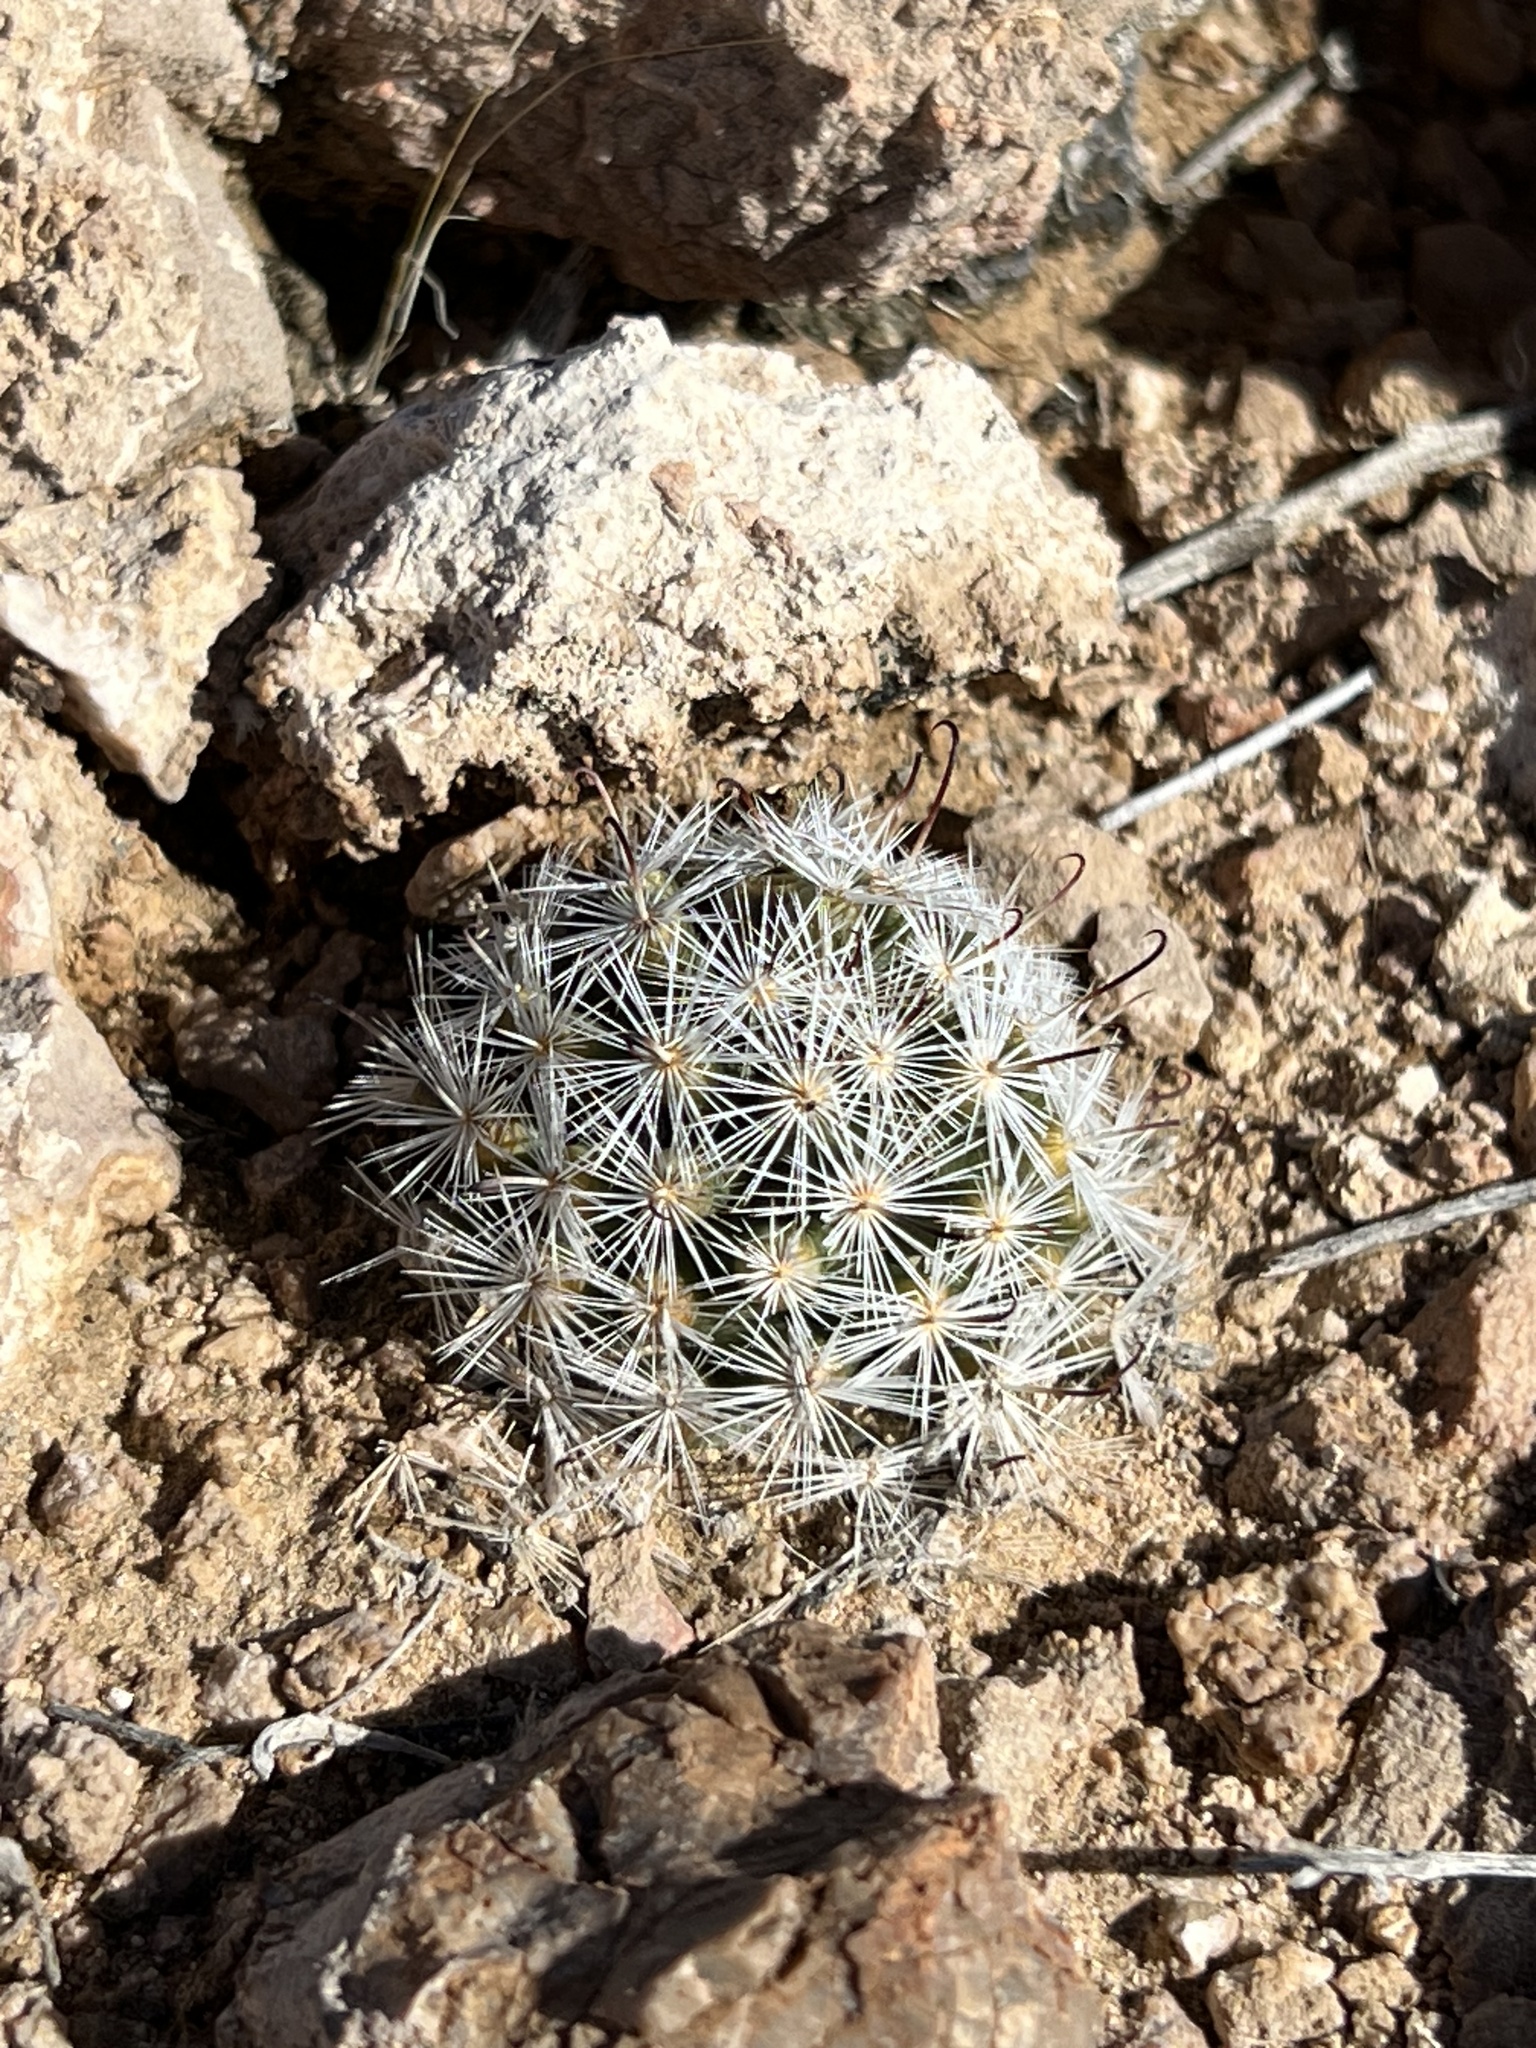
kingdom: Plantae
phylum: Tracheophyta
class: Magnoliopsida
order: Caryophyllales
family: Cactaceae
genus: Cochemiea
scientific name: Cochemiea tetrancistra
